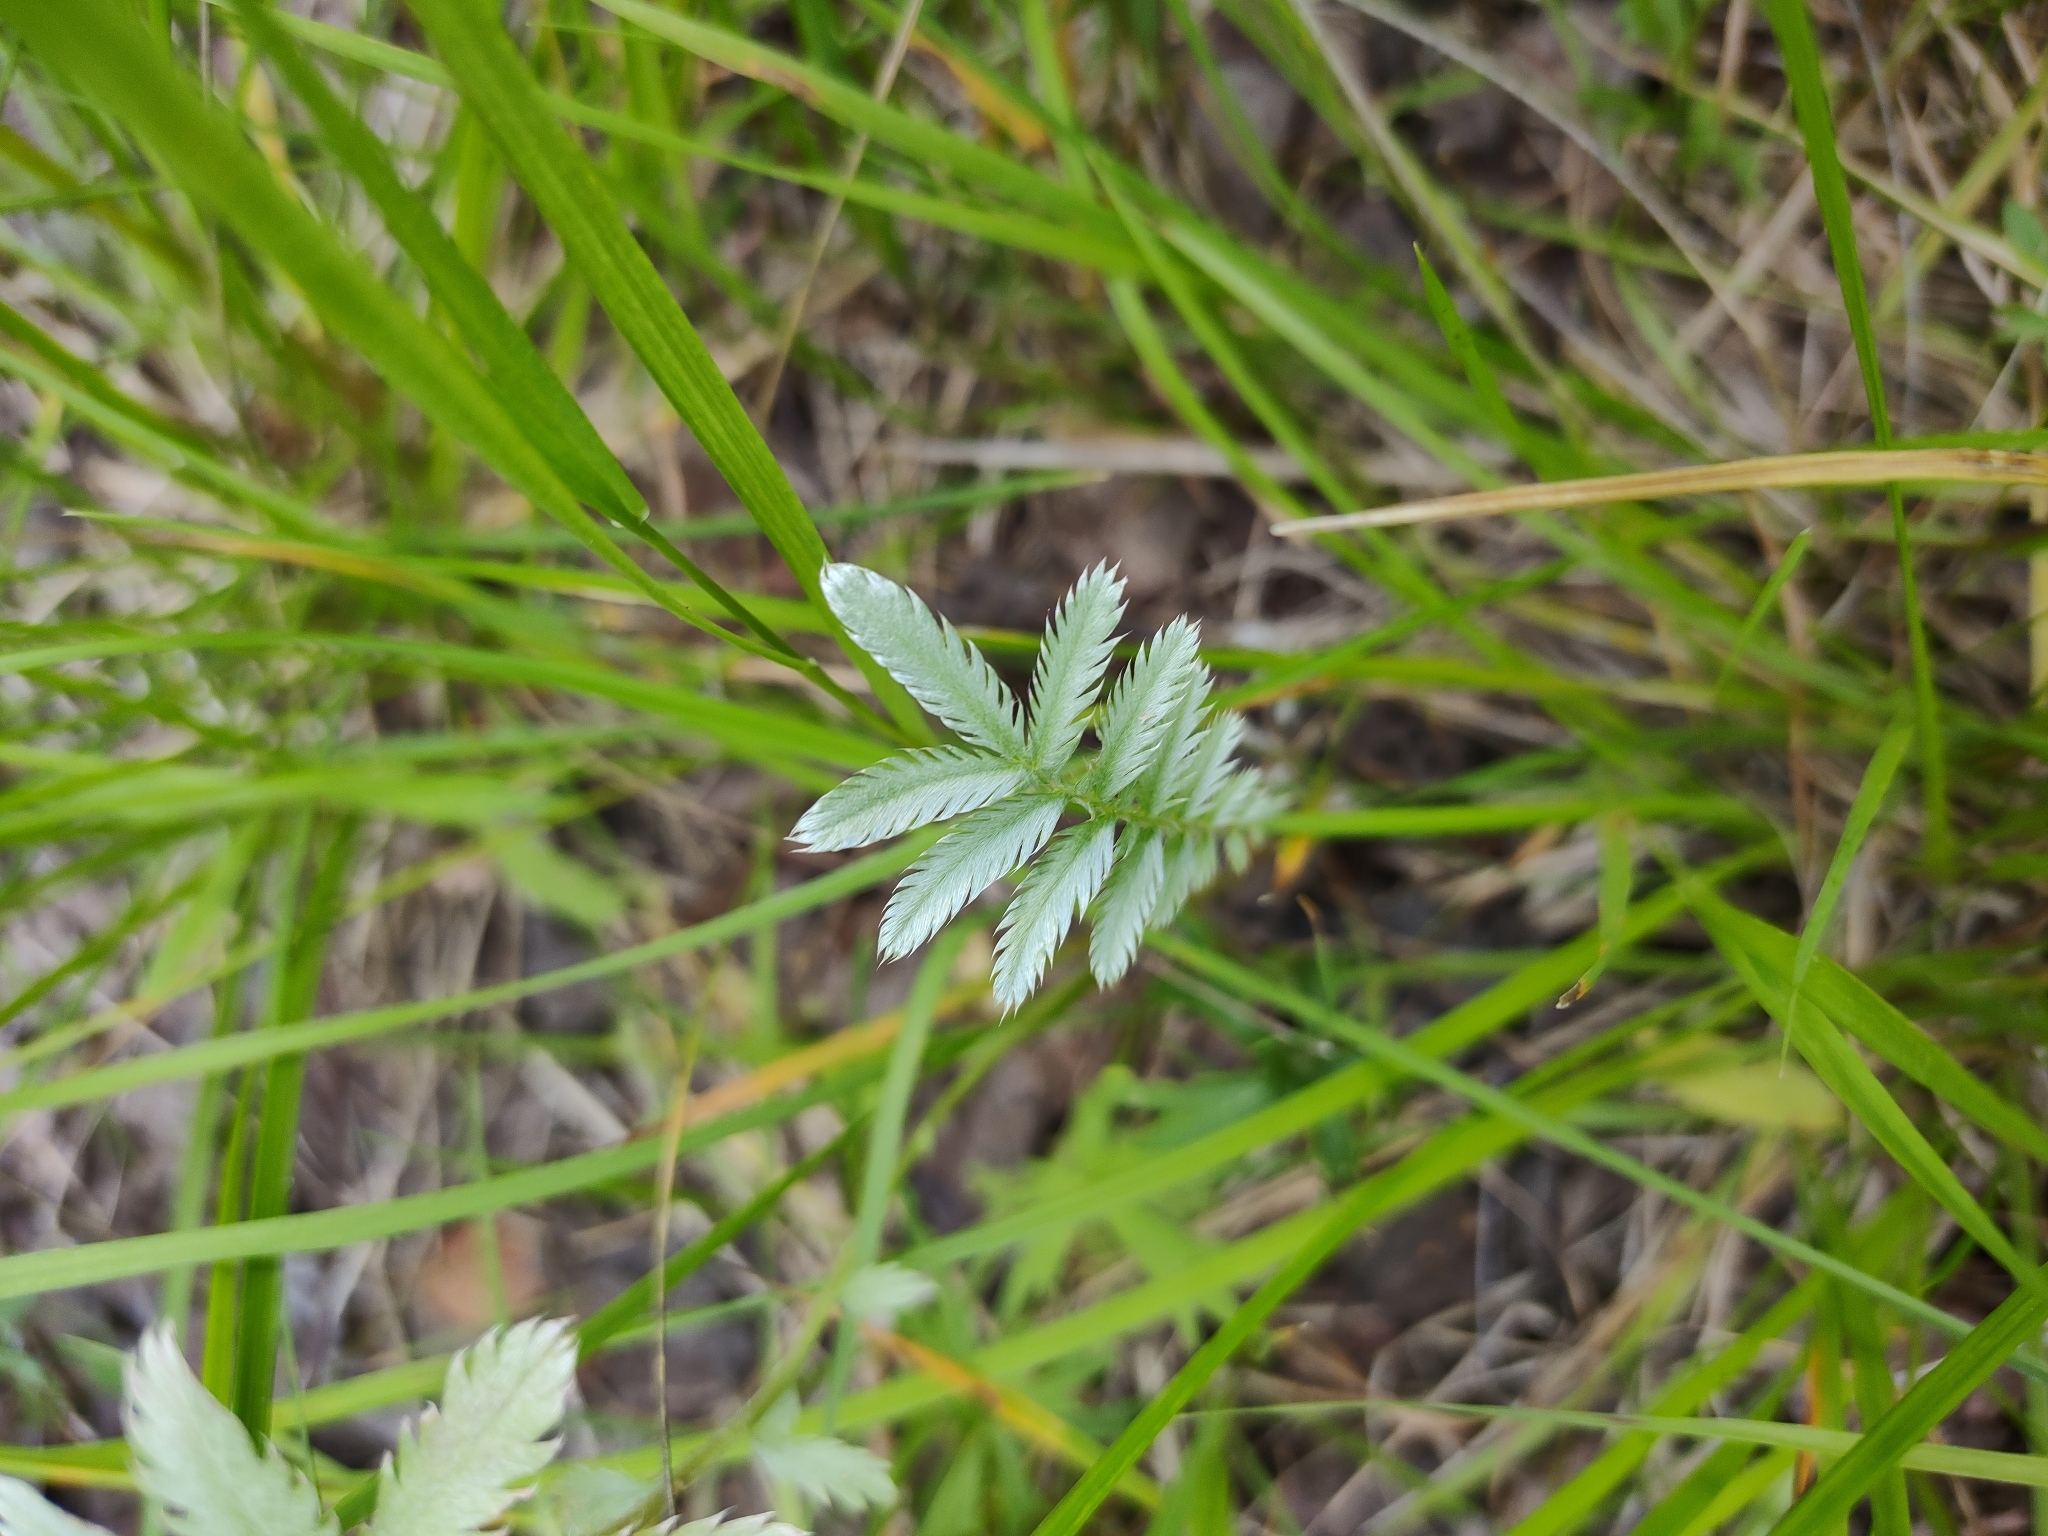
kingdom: Plantae
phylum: Tracheophyta
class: Magnoliopsida
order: Rosales
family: Rosaceae
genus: Argentina
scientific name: Argentina anserina
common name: Common silverweed
